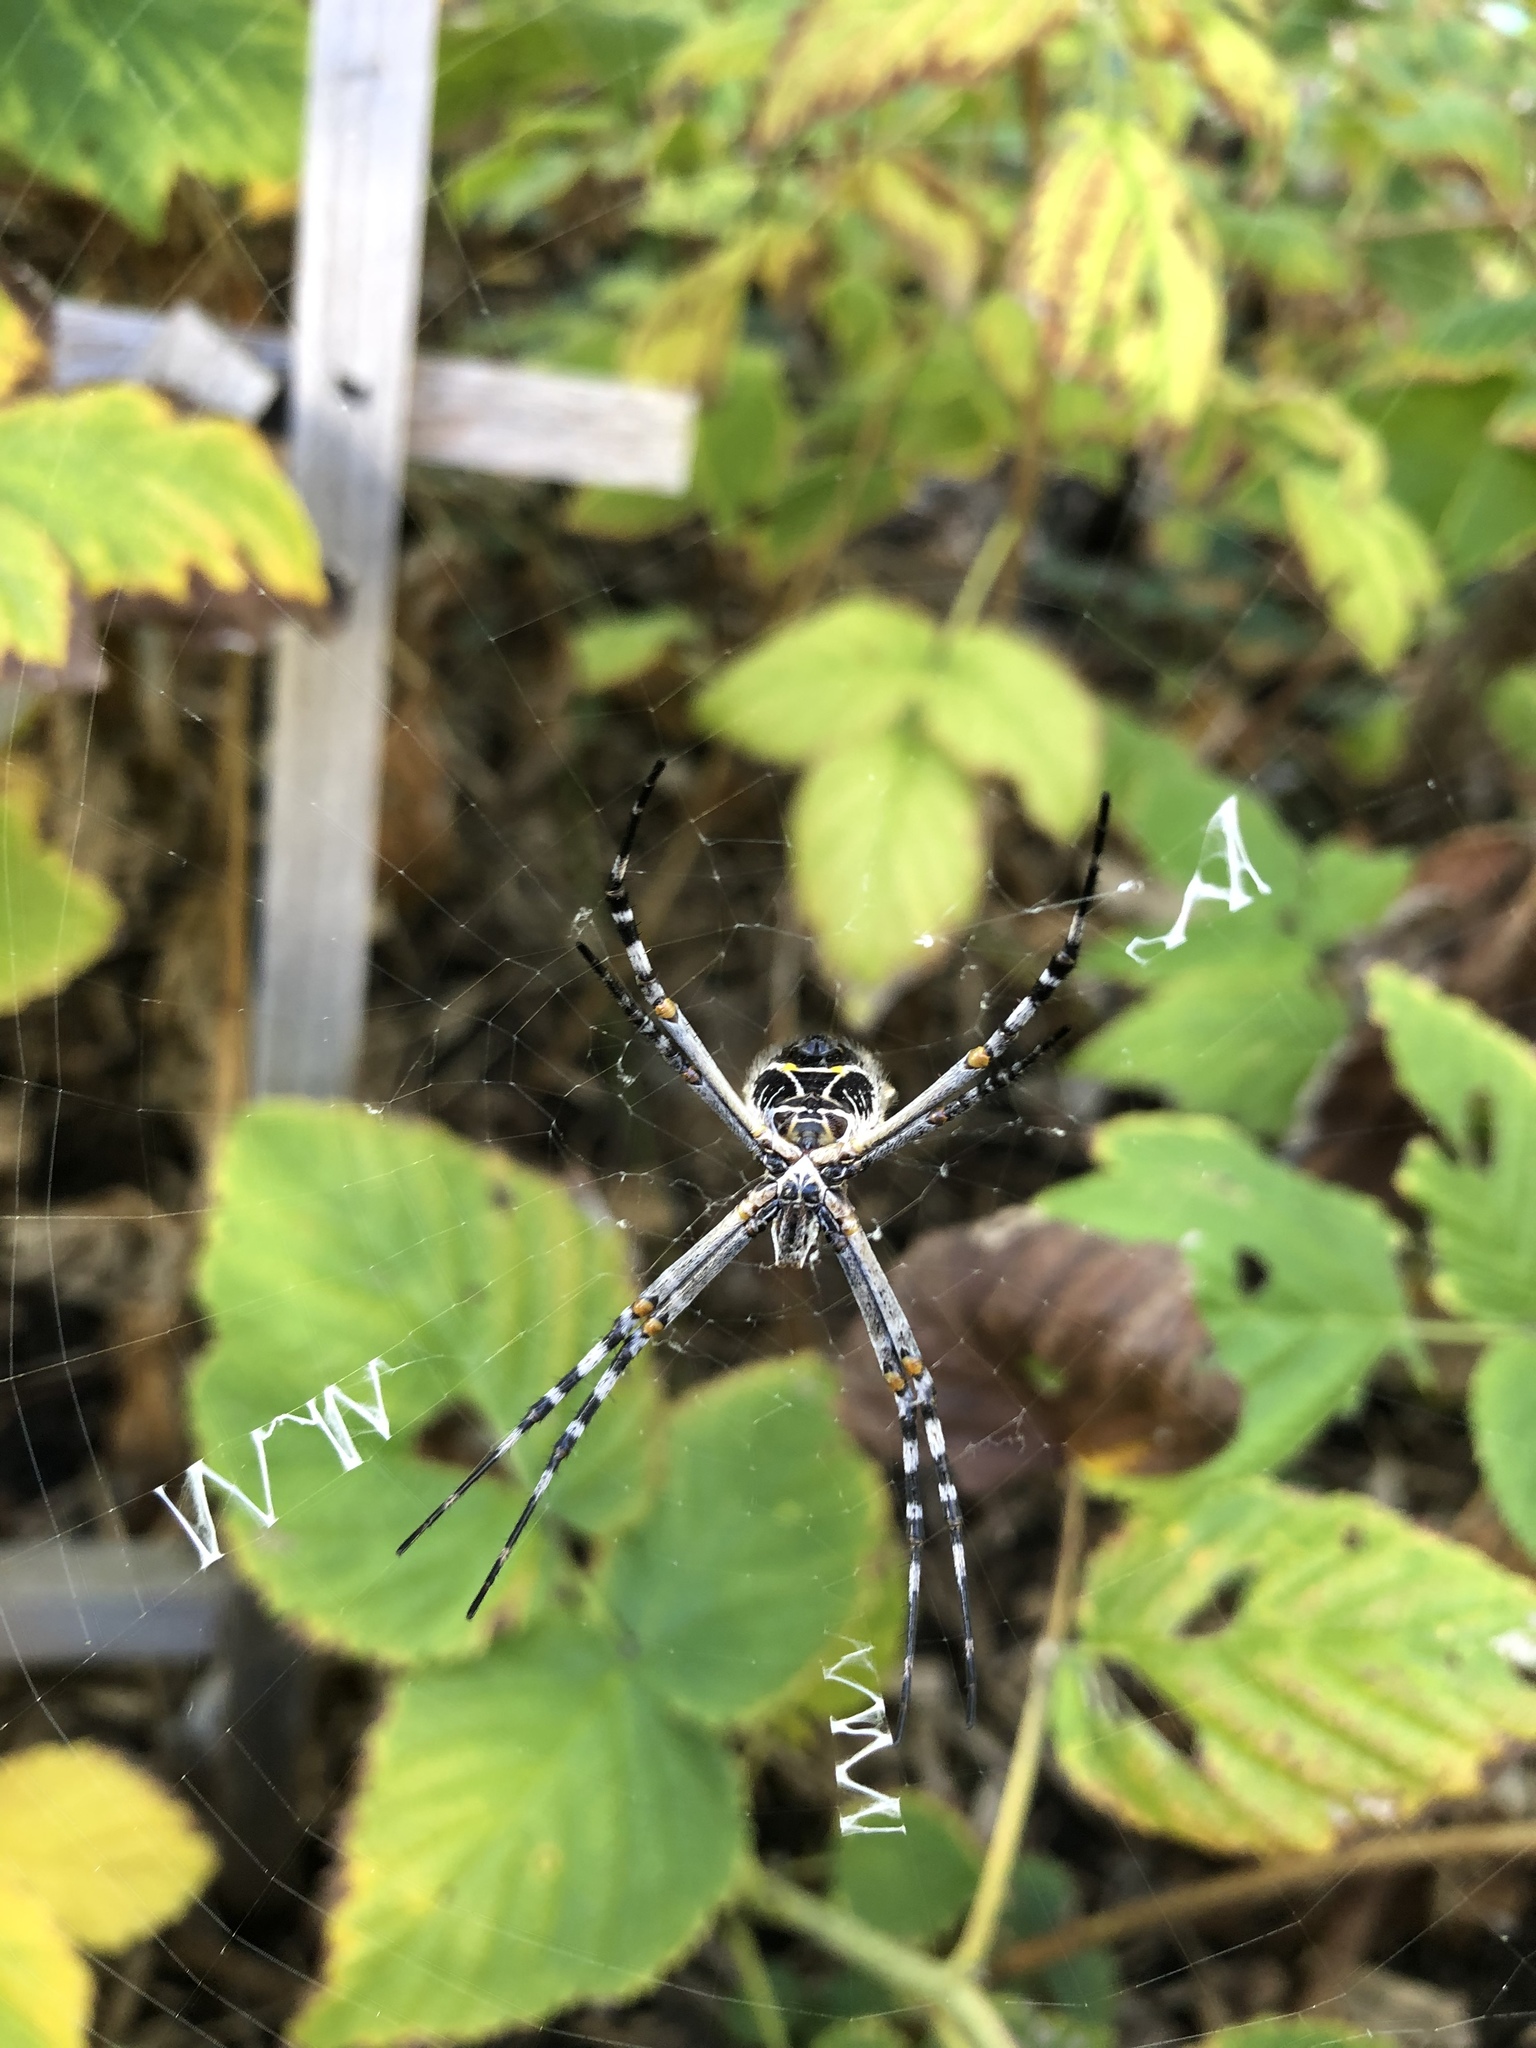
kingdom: Animalia
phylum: Arthropoda
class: Arachnida
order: Araneae
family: Araneidae
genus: Argiope
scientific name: Argiope argentata
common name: Orb weavers
